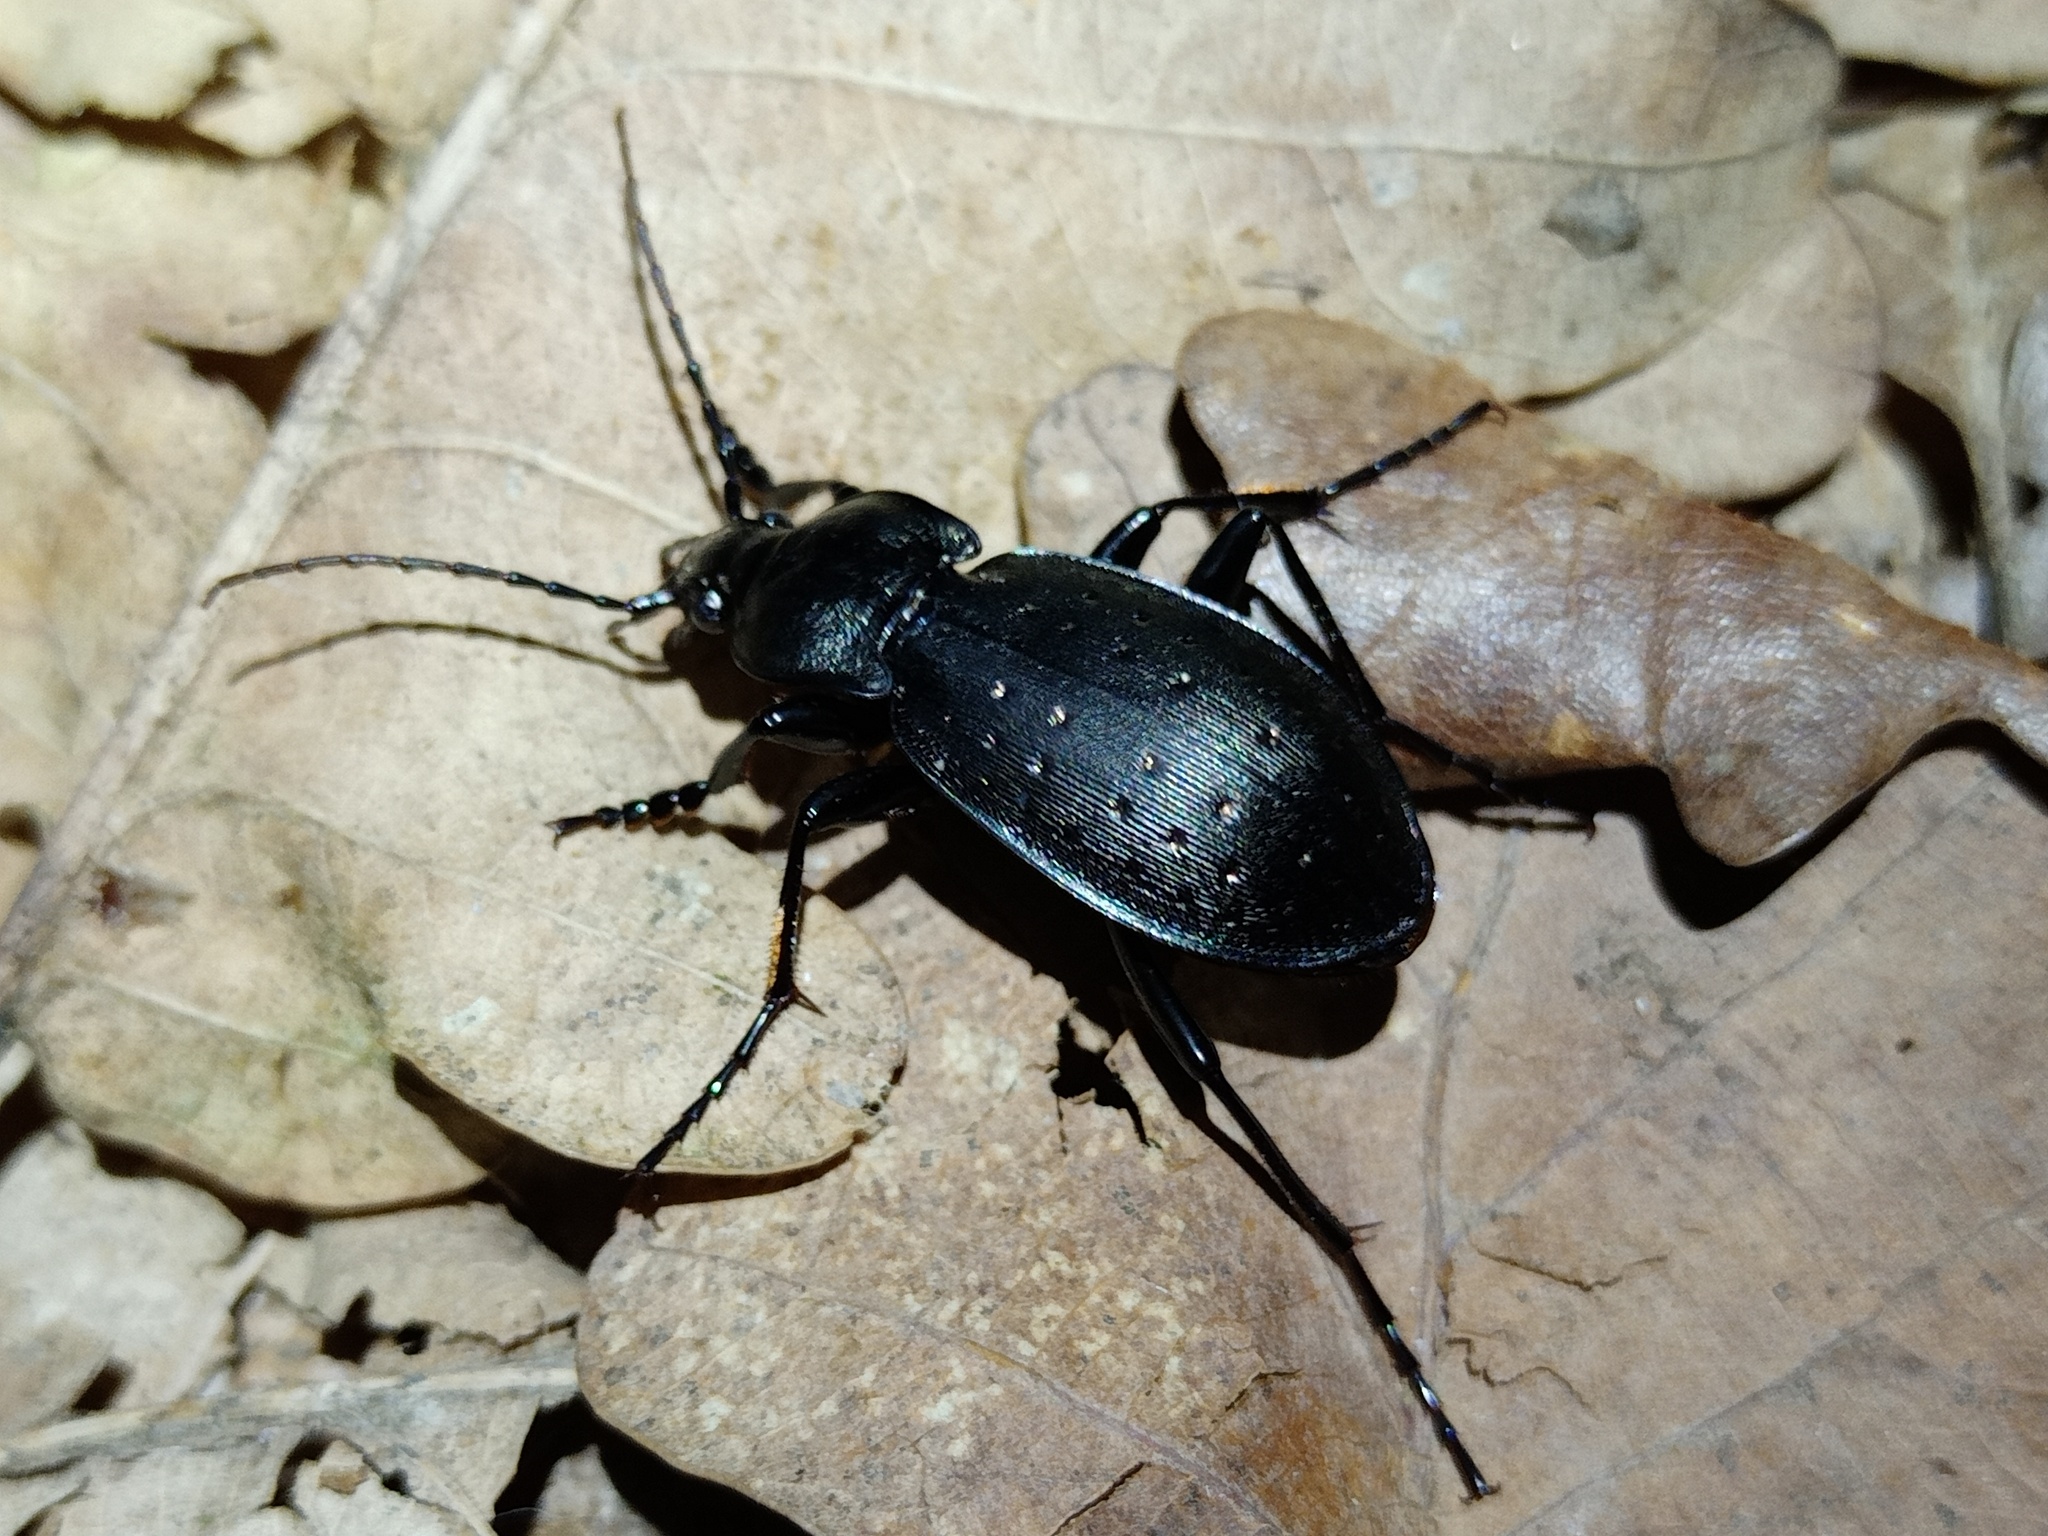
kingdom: Animalia
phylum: Arthropoda
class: Insecta
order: Coleoptera
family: Carabidae
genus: Carabus
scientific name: Carabus hortensis
